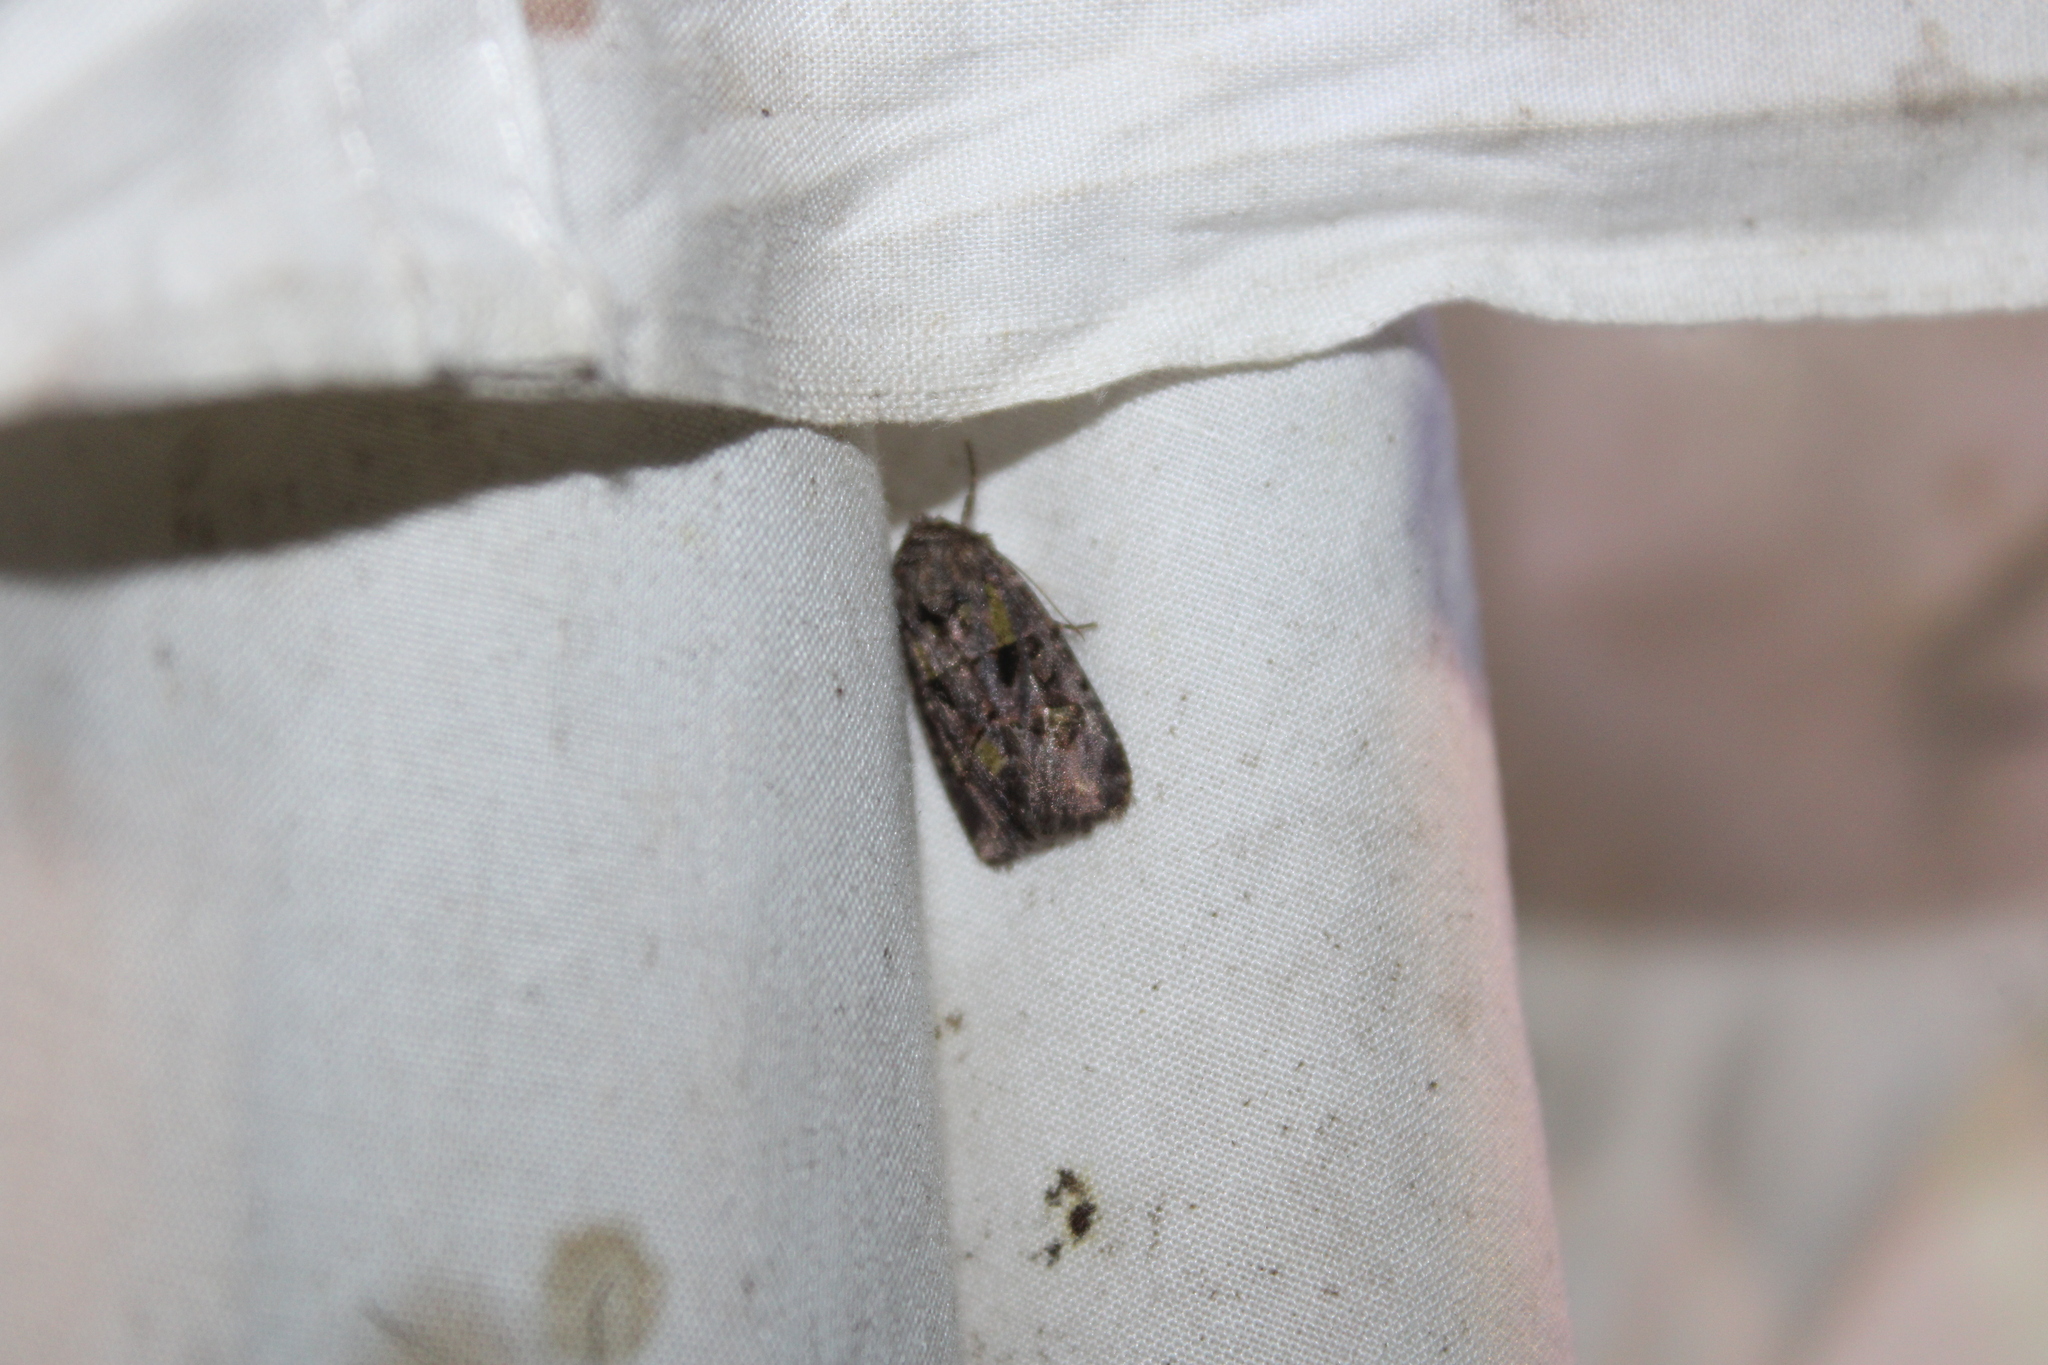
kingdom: Animalia
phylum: Arthropoda
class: Insecta
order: Lepidoptera
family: Noctuidae
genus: Lacinipolia
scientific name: Lacinipolia renigera
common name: Kidney-spotted minor
